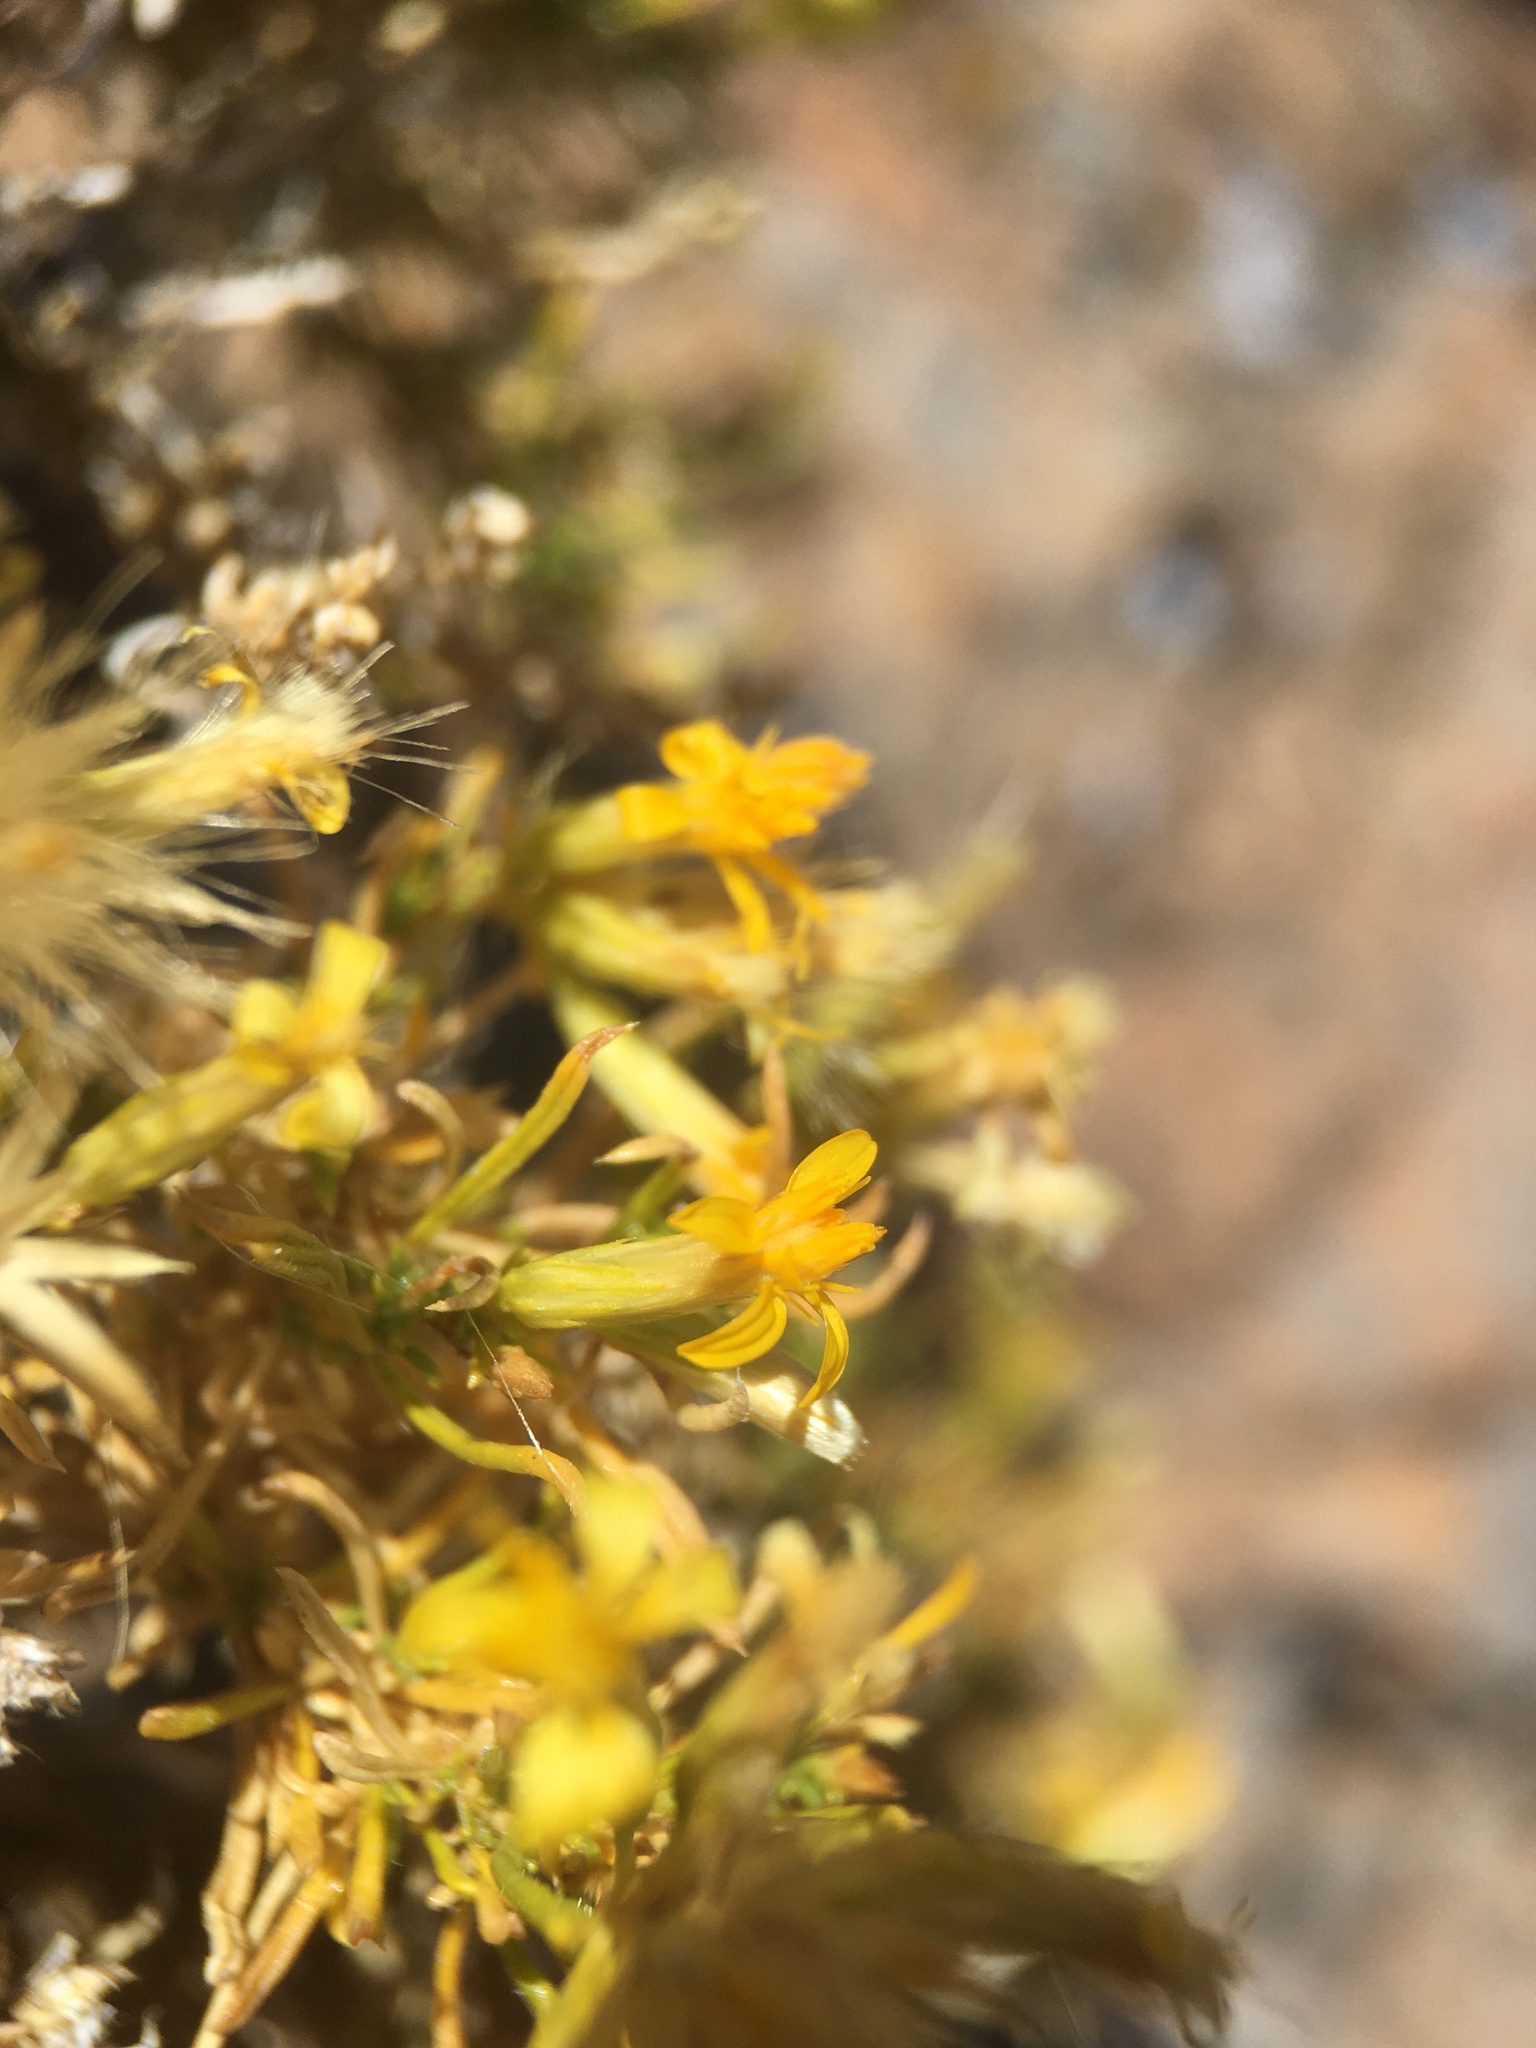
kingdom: Plantae
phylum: Tracheophyta
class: Magnoliopsida
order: Asterales
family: Asteraceae
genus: Ericameria
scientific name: Ericameria nana
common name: Dwarf goldenbush
